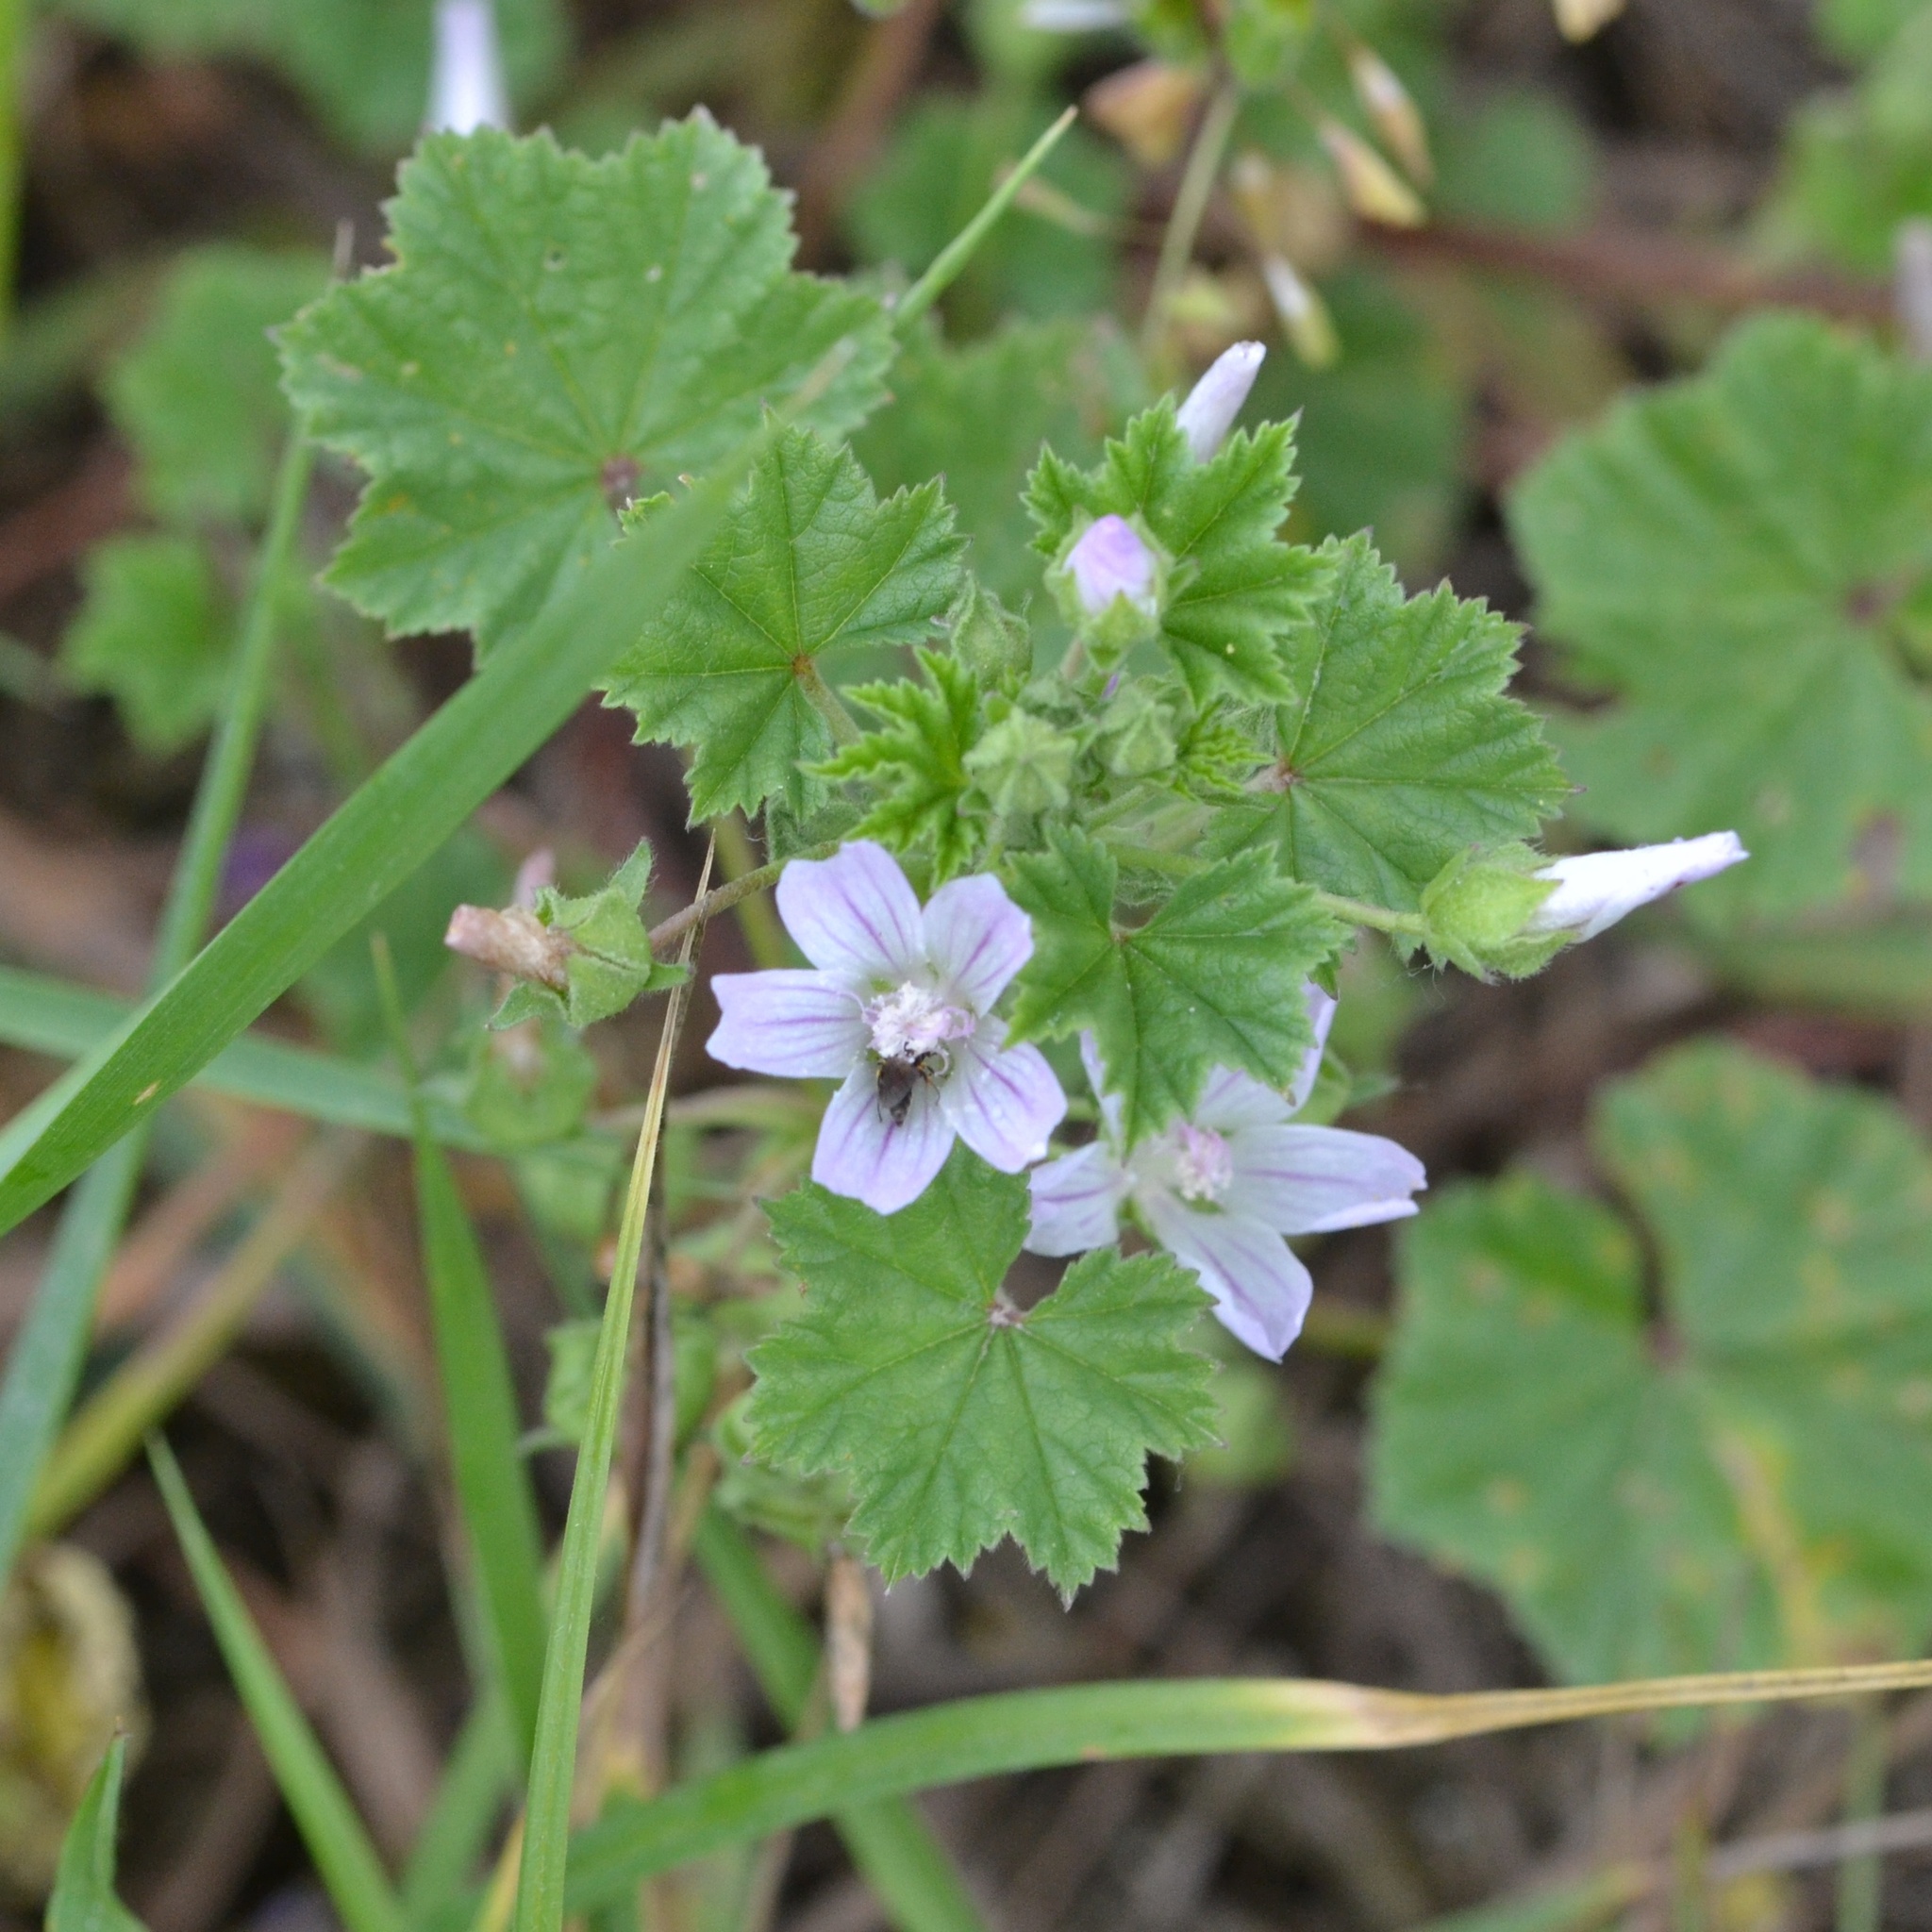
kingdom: Plantae
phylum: Tracheophyta
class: Magnoliopsida
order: Malvales
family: Malvaceae
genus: Malva
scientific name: Malva neglecta
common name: Common mallow
